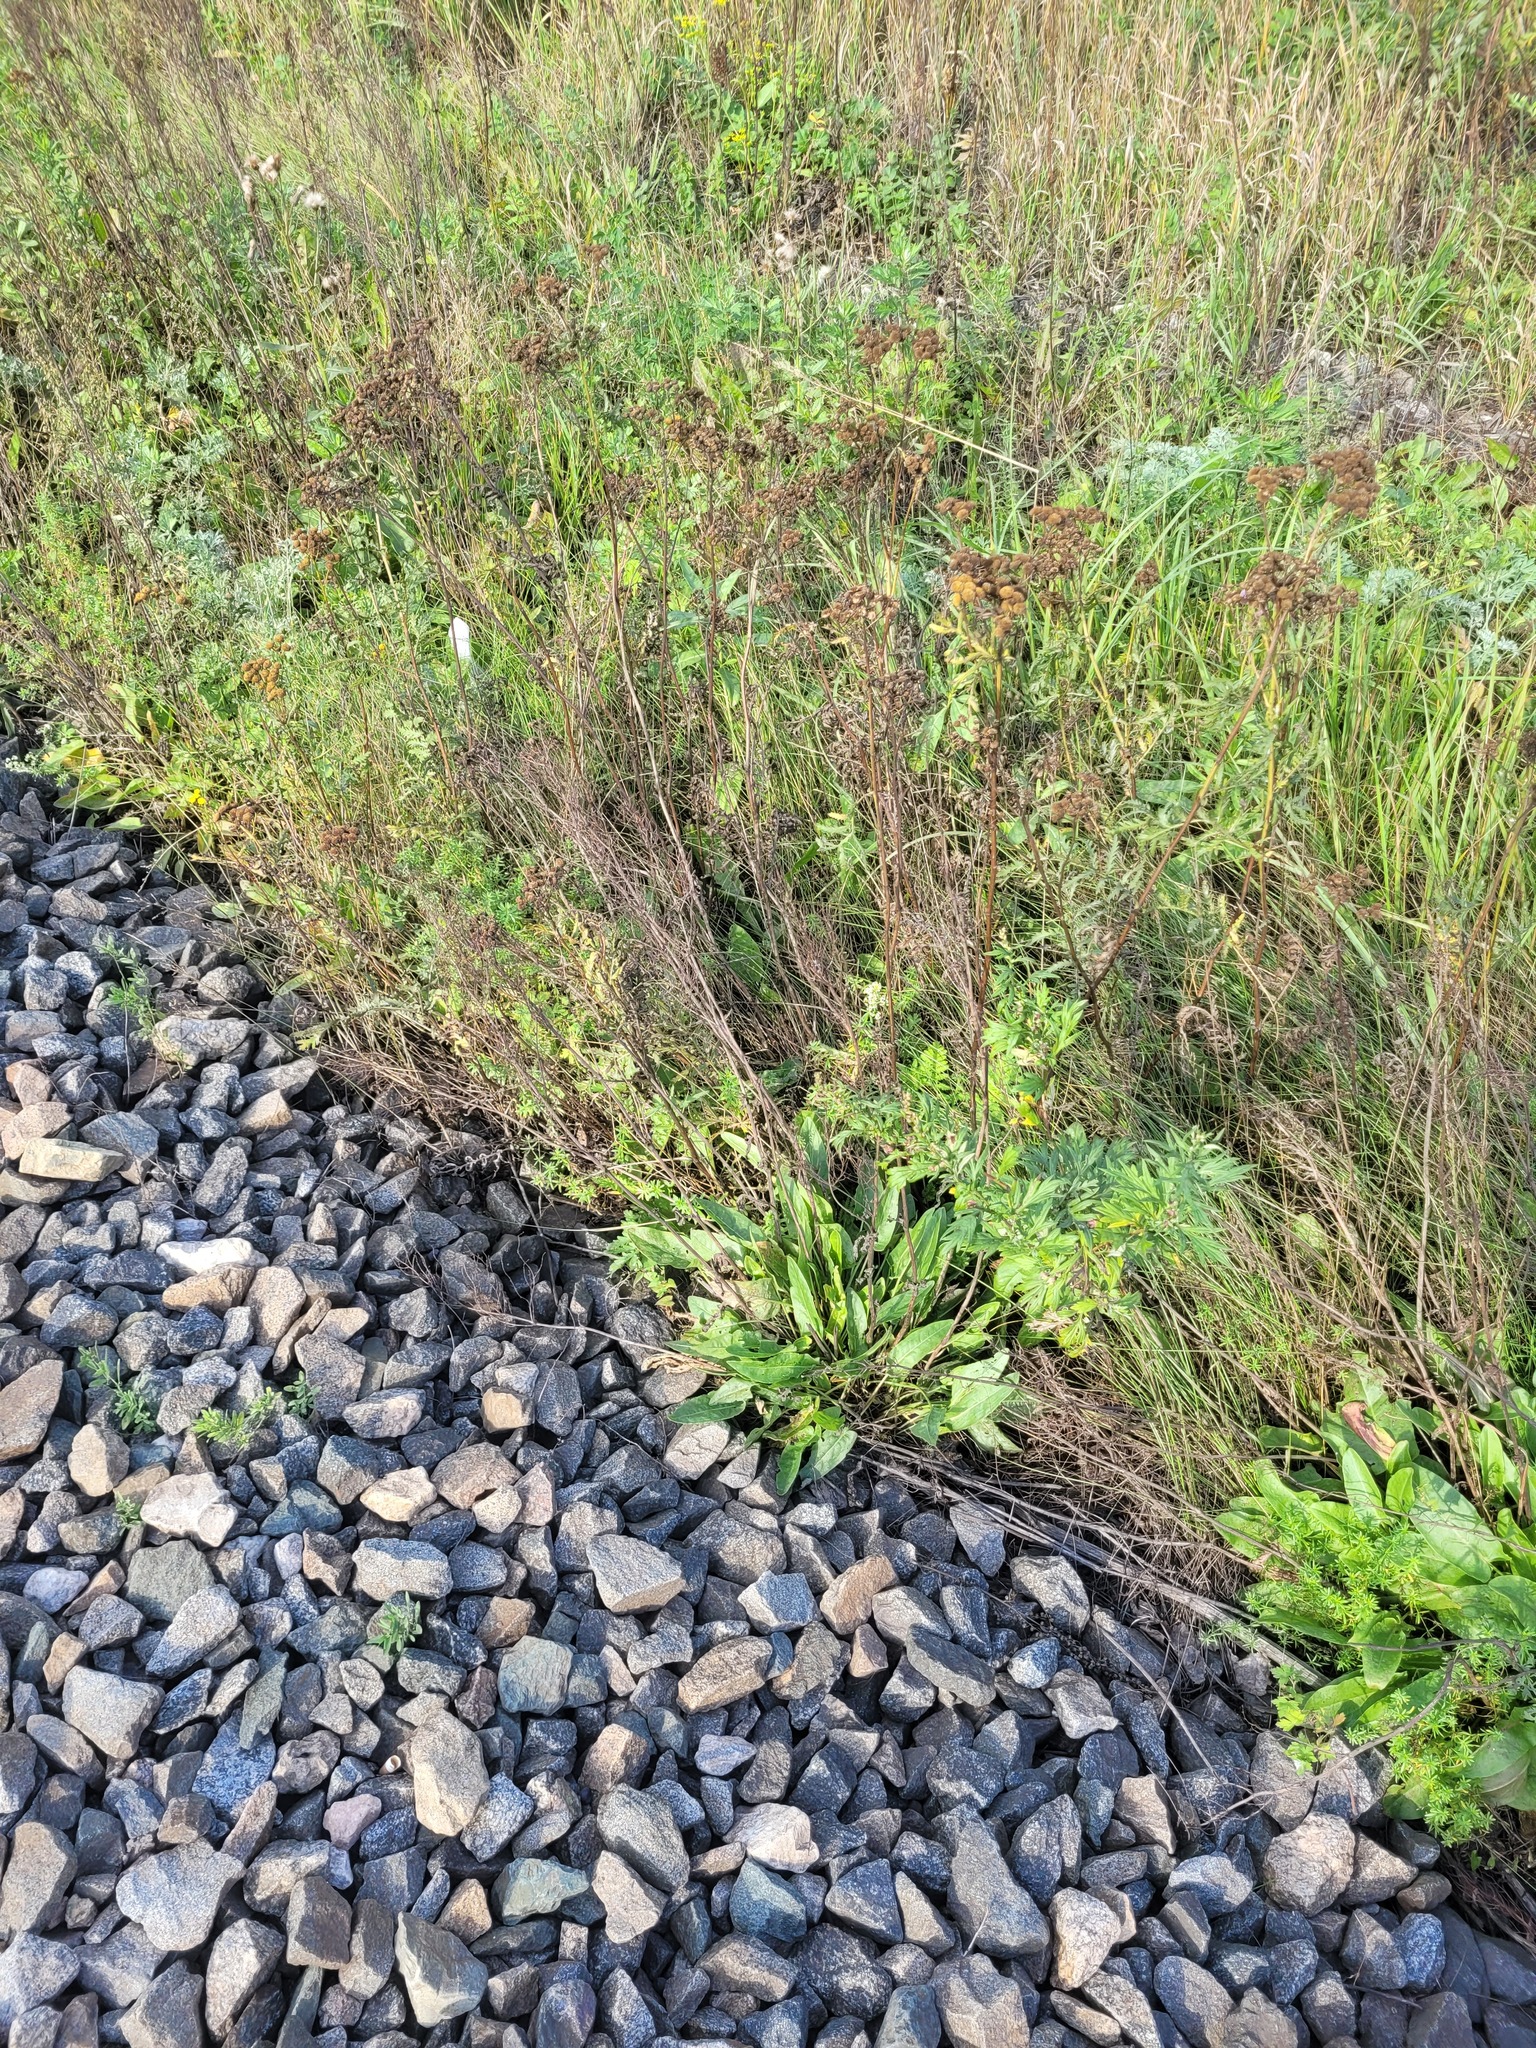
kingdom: Plantae
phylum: Tracheophyta
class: Magnoliopsida
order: Caryophyllales
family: Polygonaceae
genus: Rumex
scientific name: Rumex thyrsiflorus
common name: Garden sorrel
